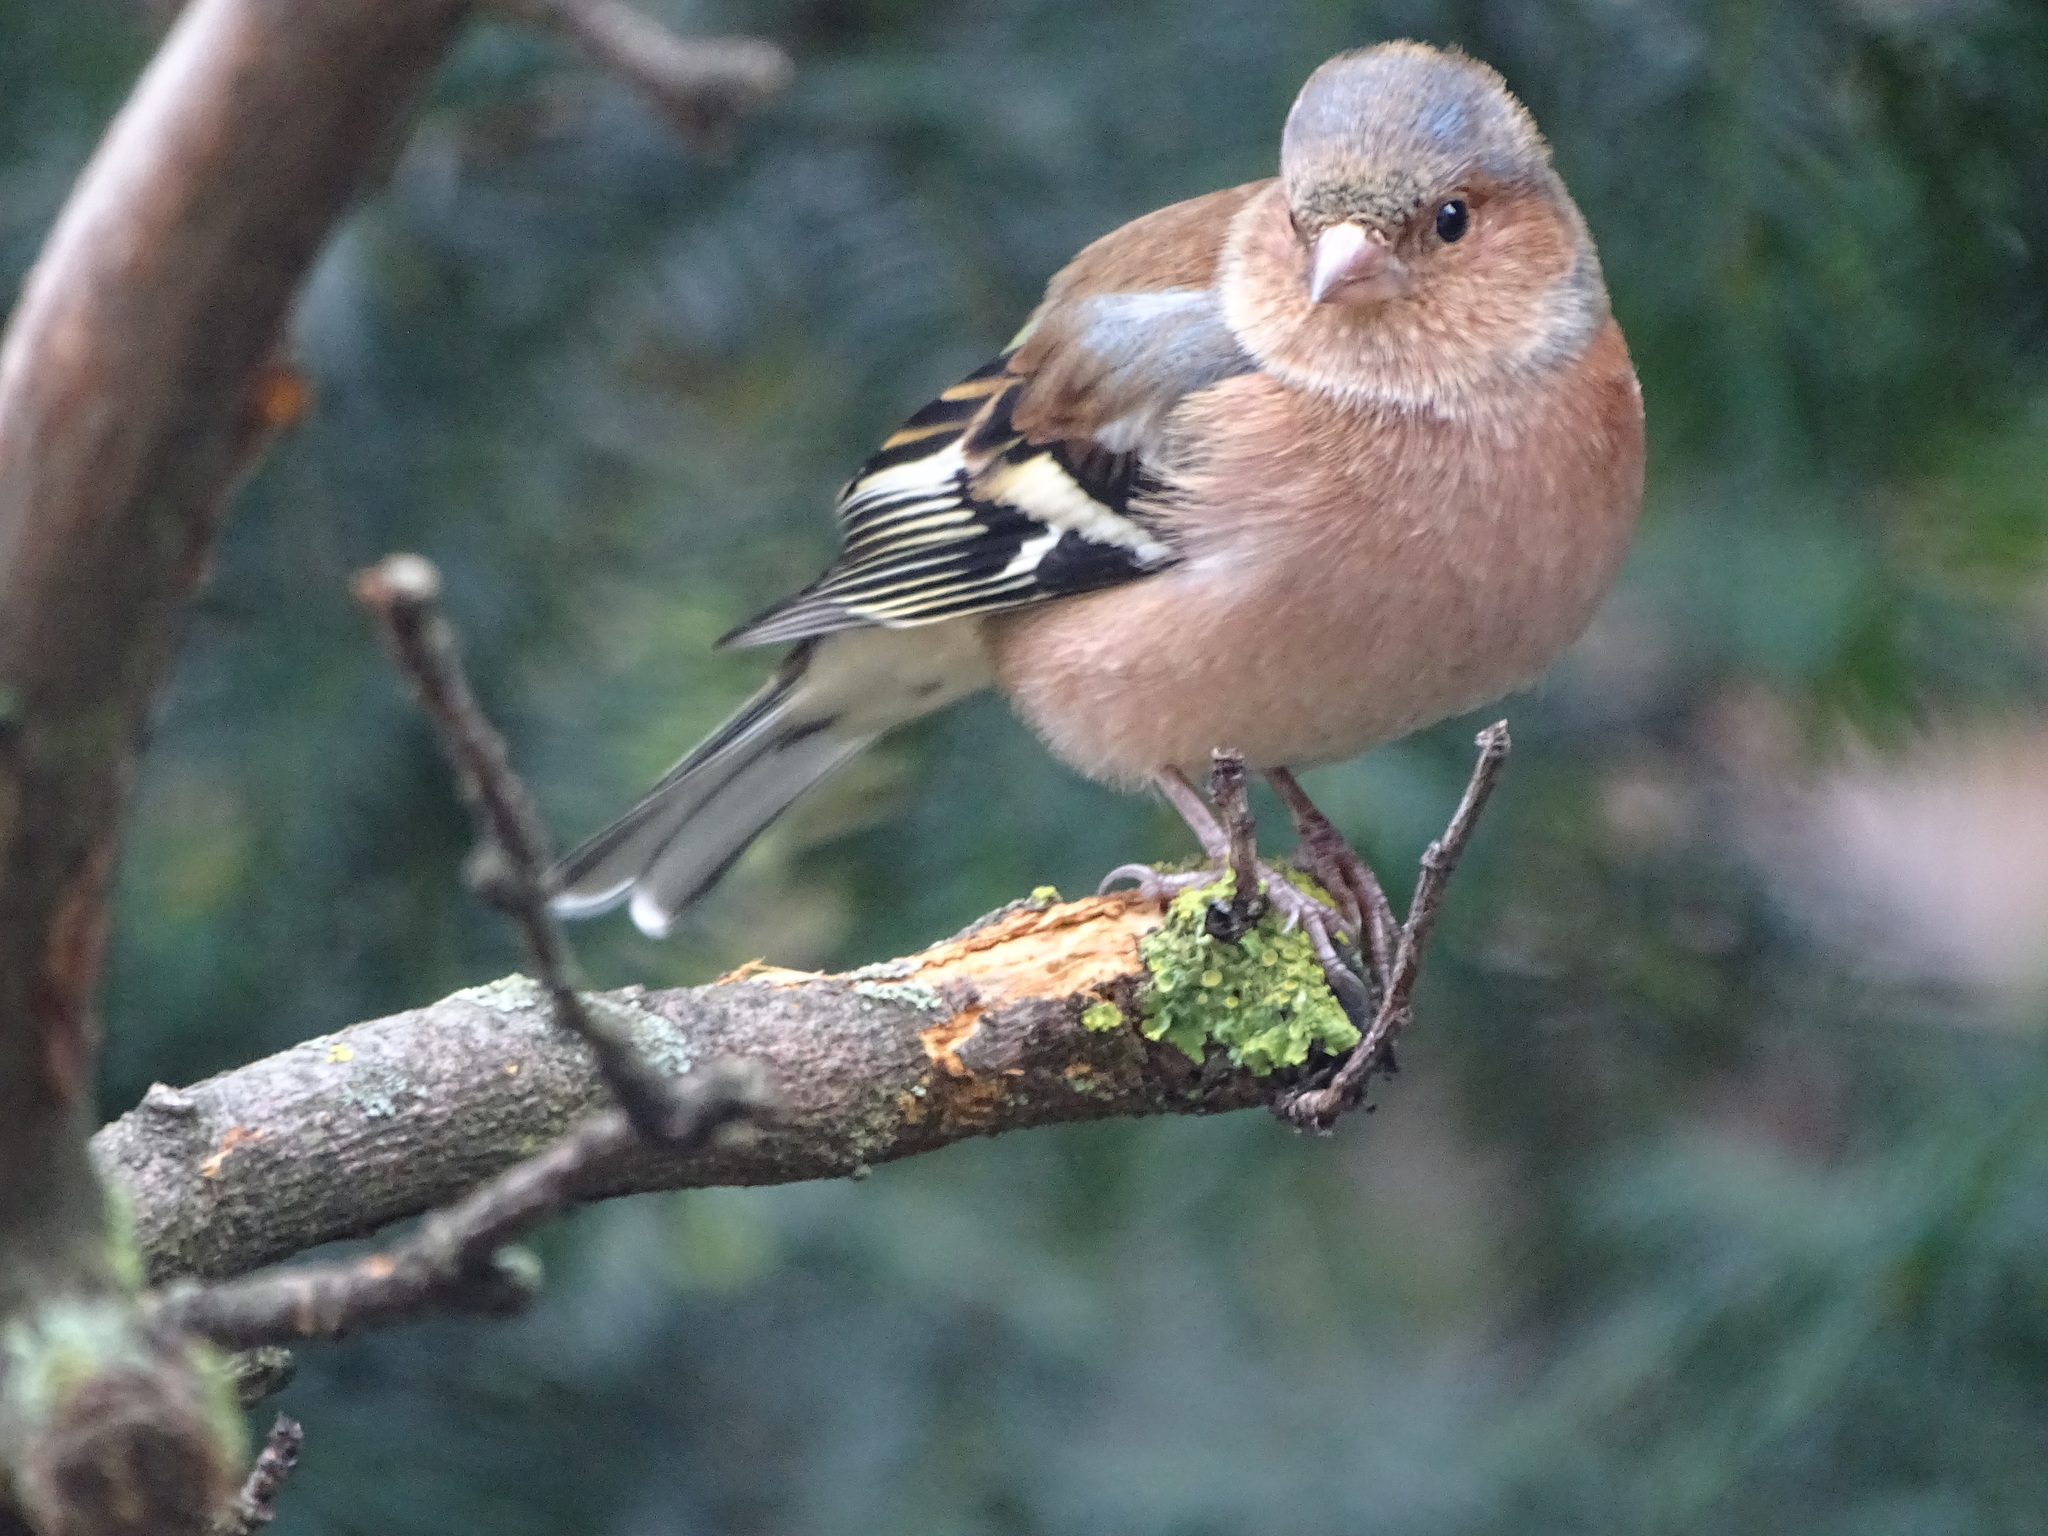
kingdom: Animalia
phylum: Chordata
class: Aves
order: Passeriformes
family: Fringillidae
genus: Fringilla
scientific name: Fringilla coelebs
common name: Common chaffinch
